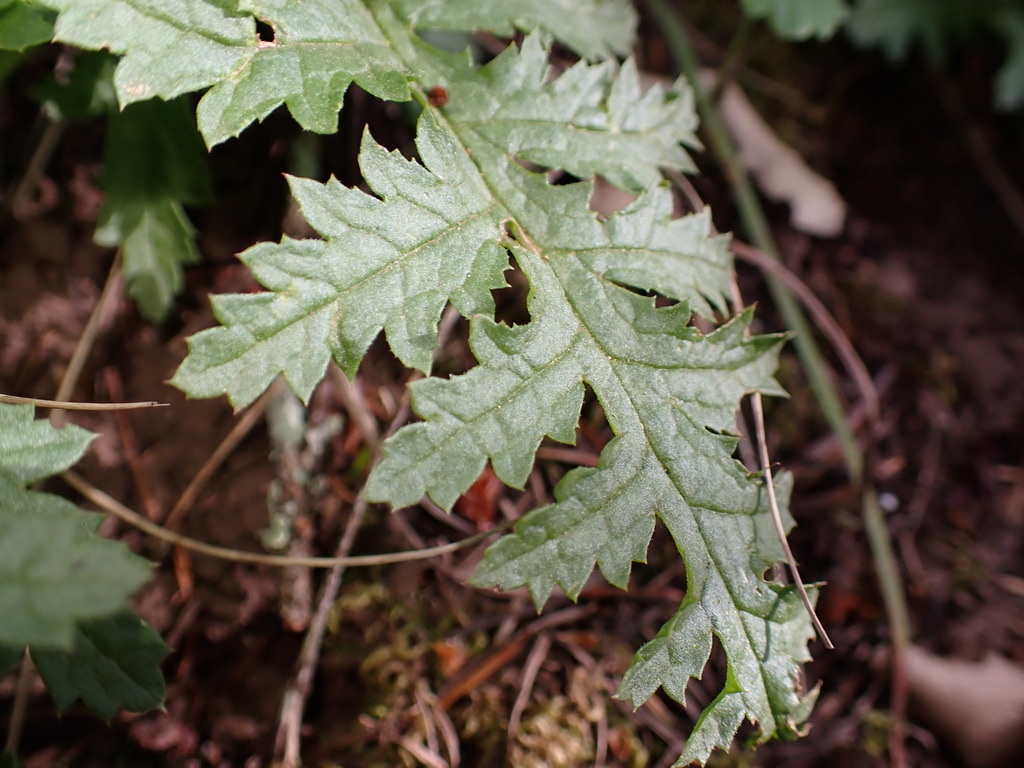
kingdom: Plantae
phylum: Tracheophyta
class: Magnoliopsida
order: Lamiales
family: Orobanchaceae
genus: Pedicularis
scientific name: Pedicularis densiflora
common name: Indian warrior
